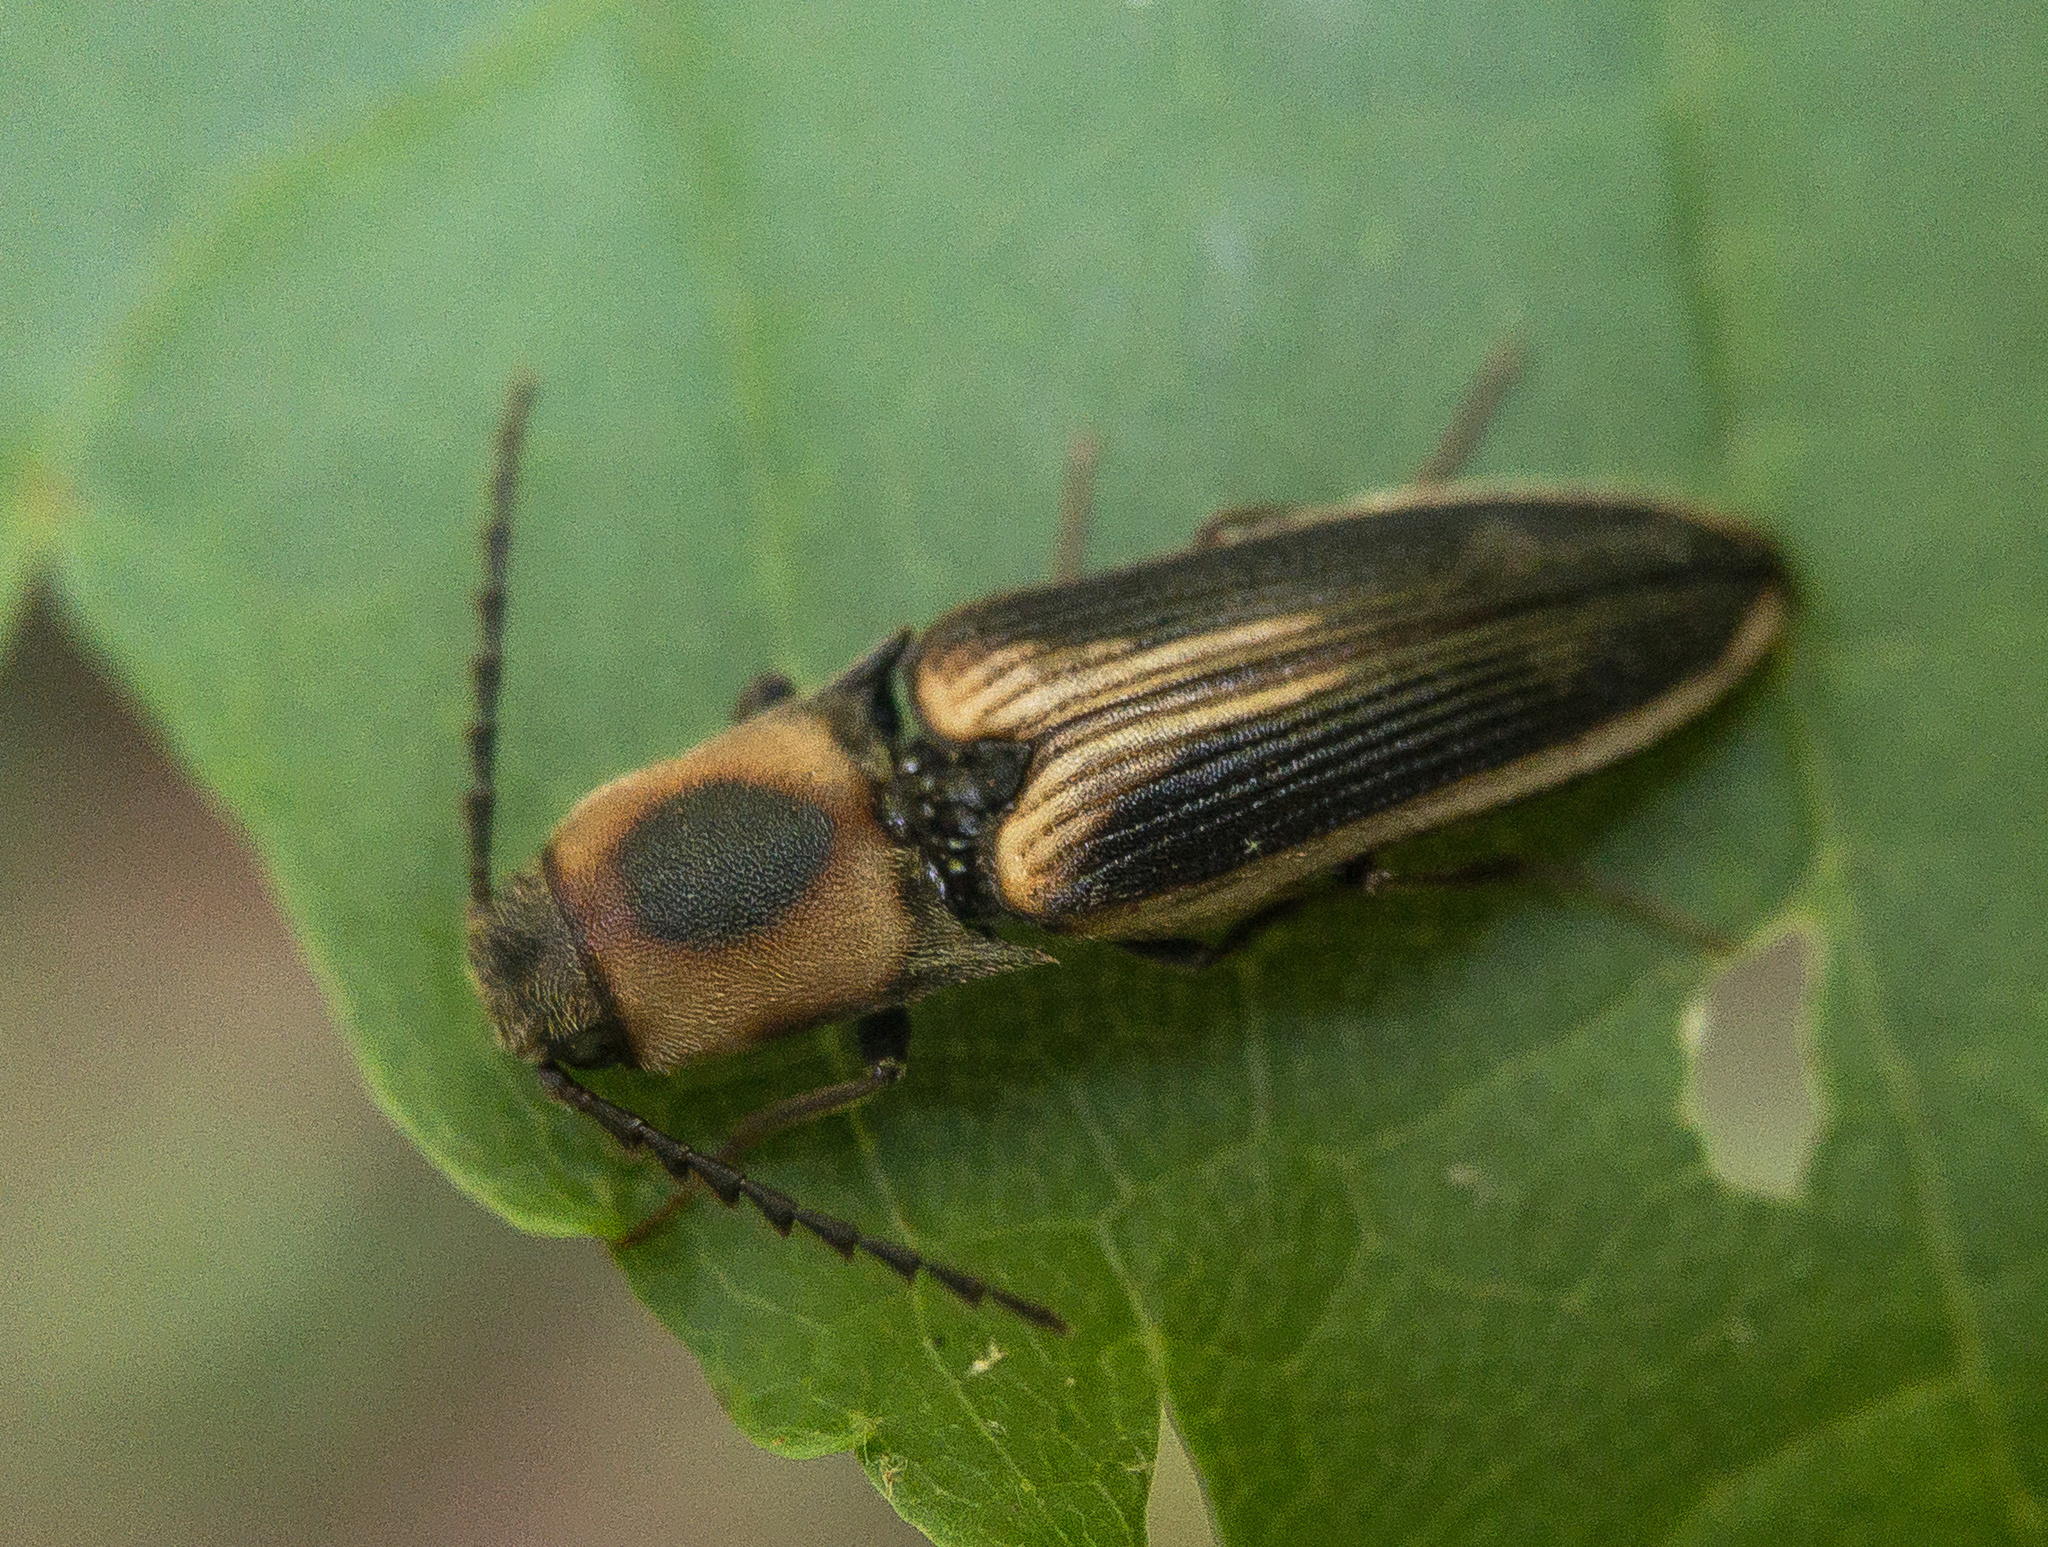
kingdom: Animalia
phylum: Arthropoda
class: Insecta
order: Coleoptera
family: Elateridae
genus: Megapenthes
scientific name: Megapenthes
